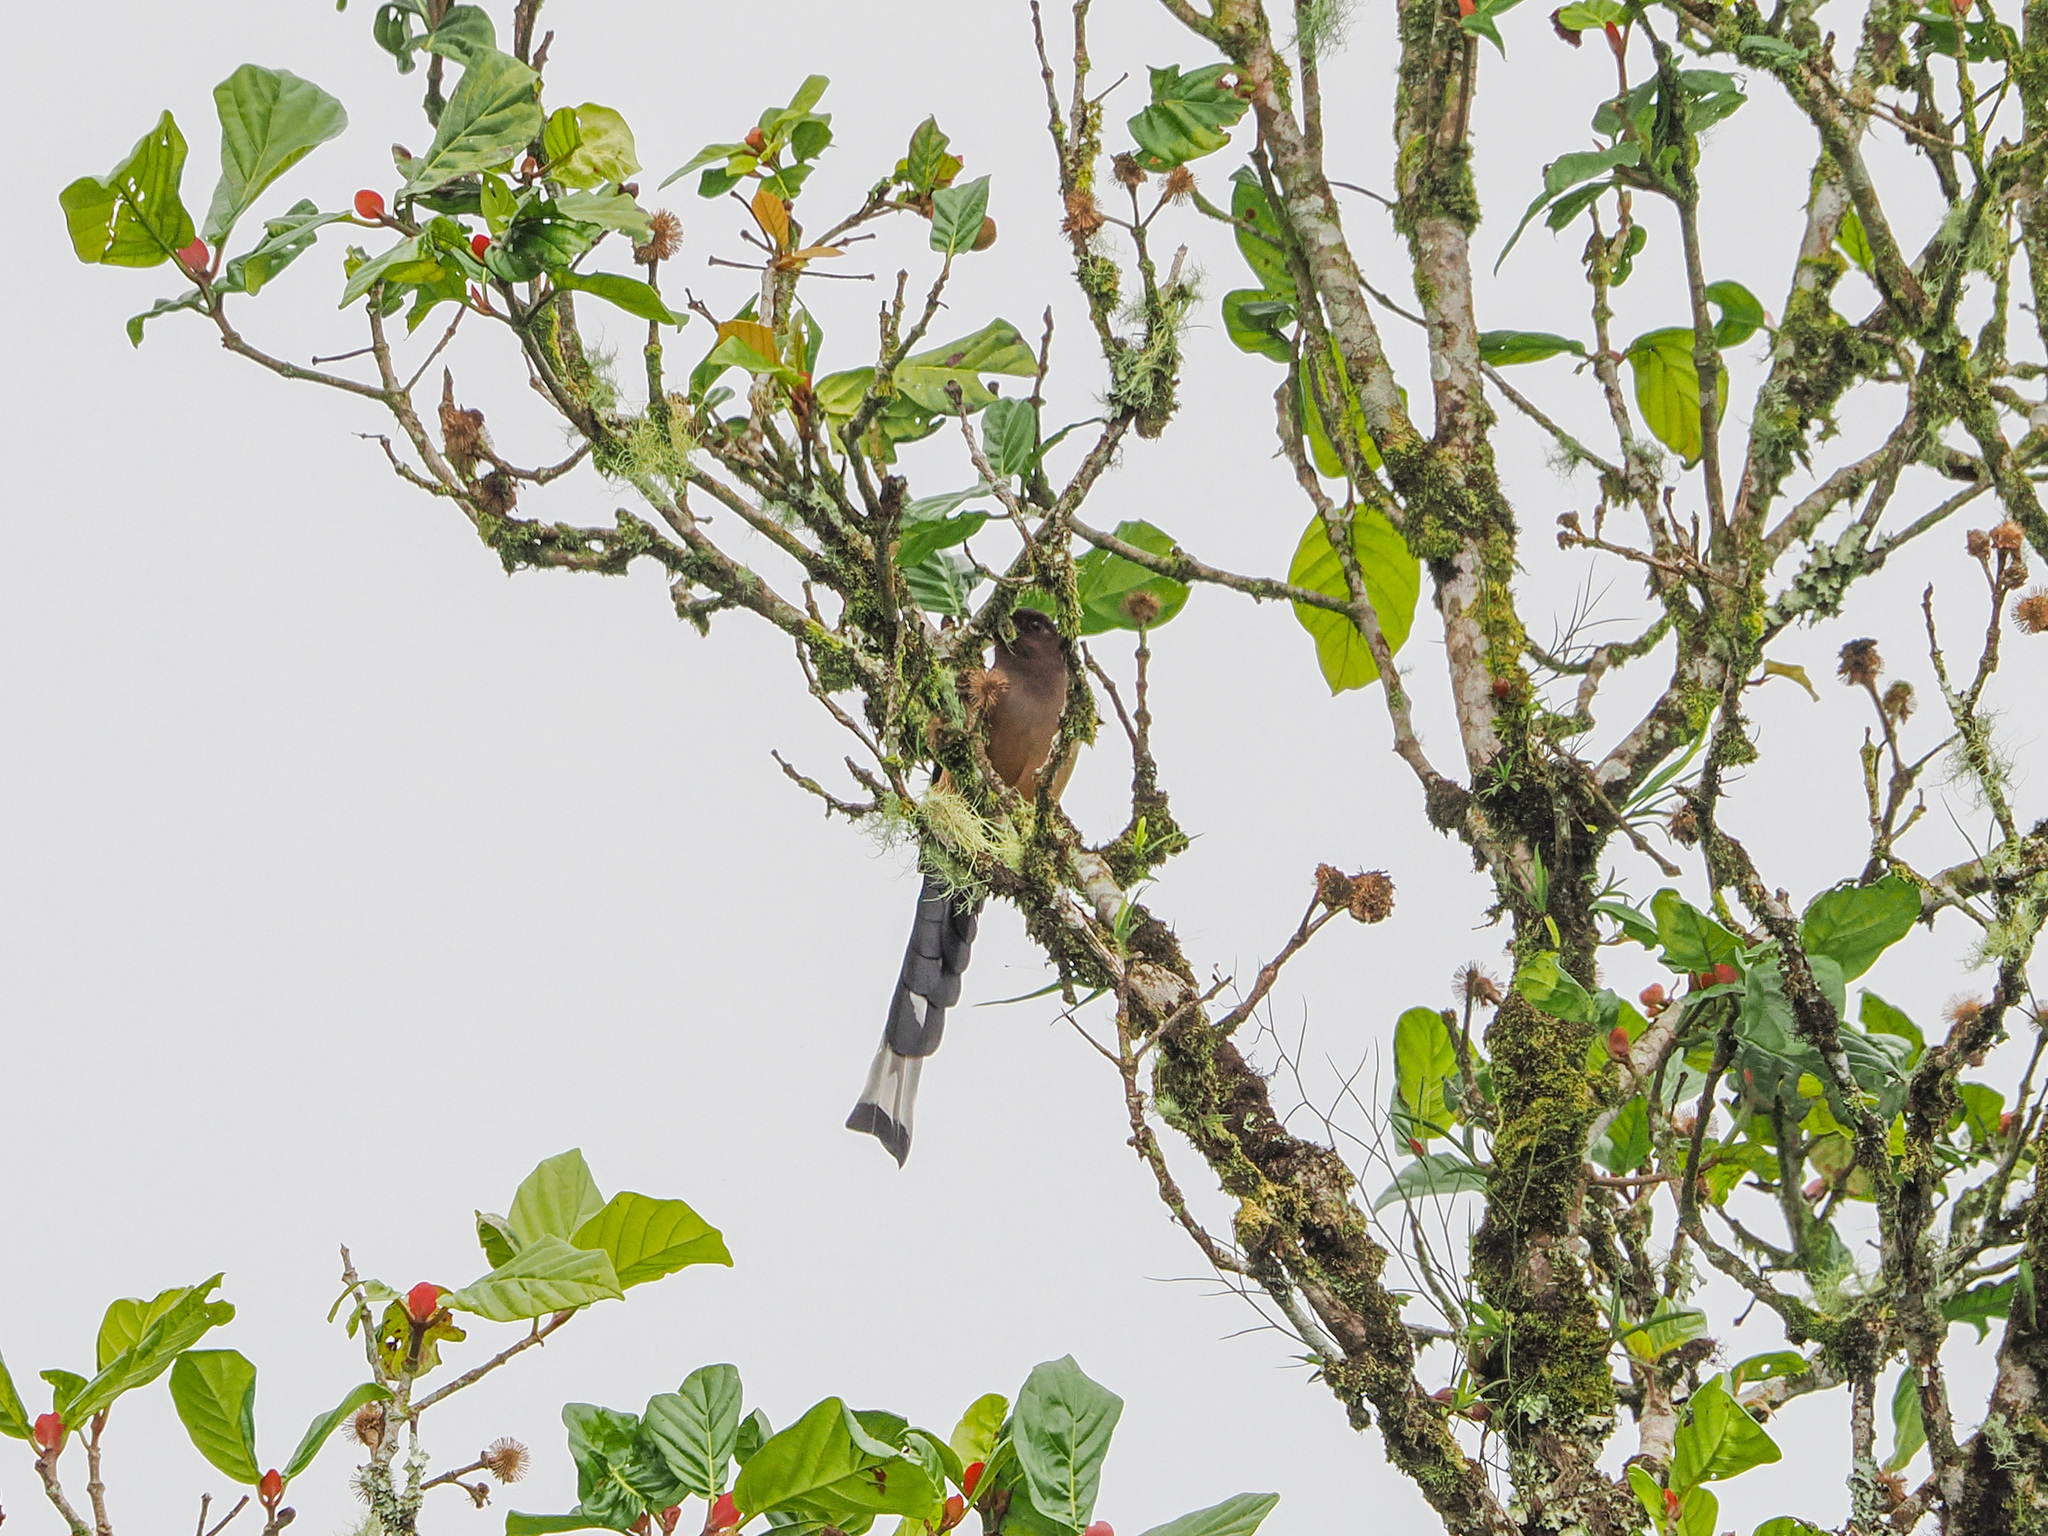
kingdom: Animalia
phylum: Chordata
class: Aves
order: Passeriformes
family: Corvidae
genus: Dendrocitta
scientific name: Dendrocitta occipitalis
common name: Sumatran treepie
